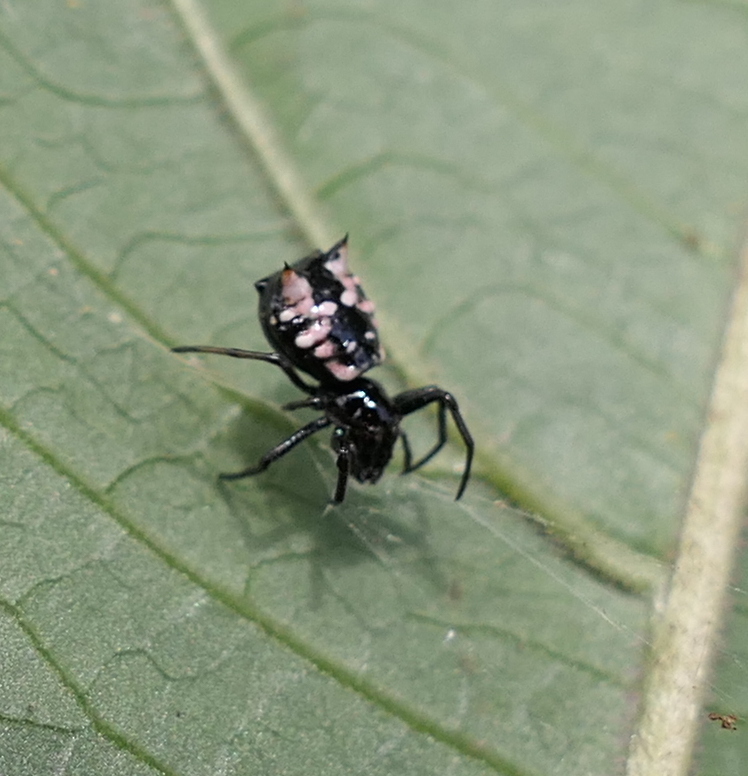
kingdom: Animalia
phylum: Arthropoda
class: Arachnida
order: Araneae
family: Araneidae
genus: Micrathena
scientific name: Micrathena patruelis
